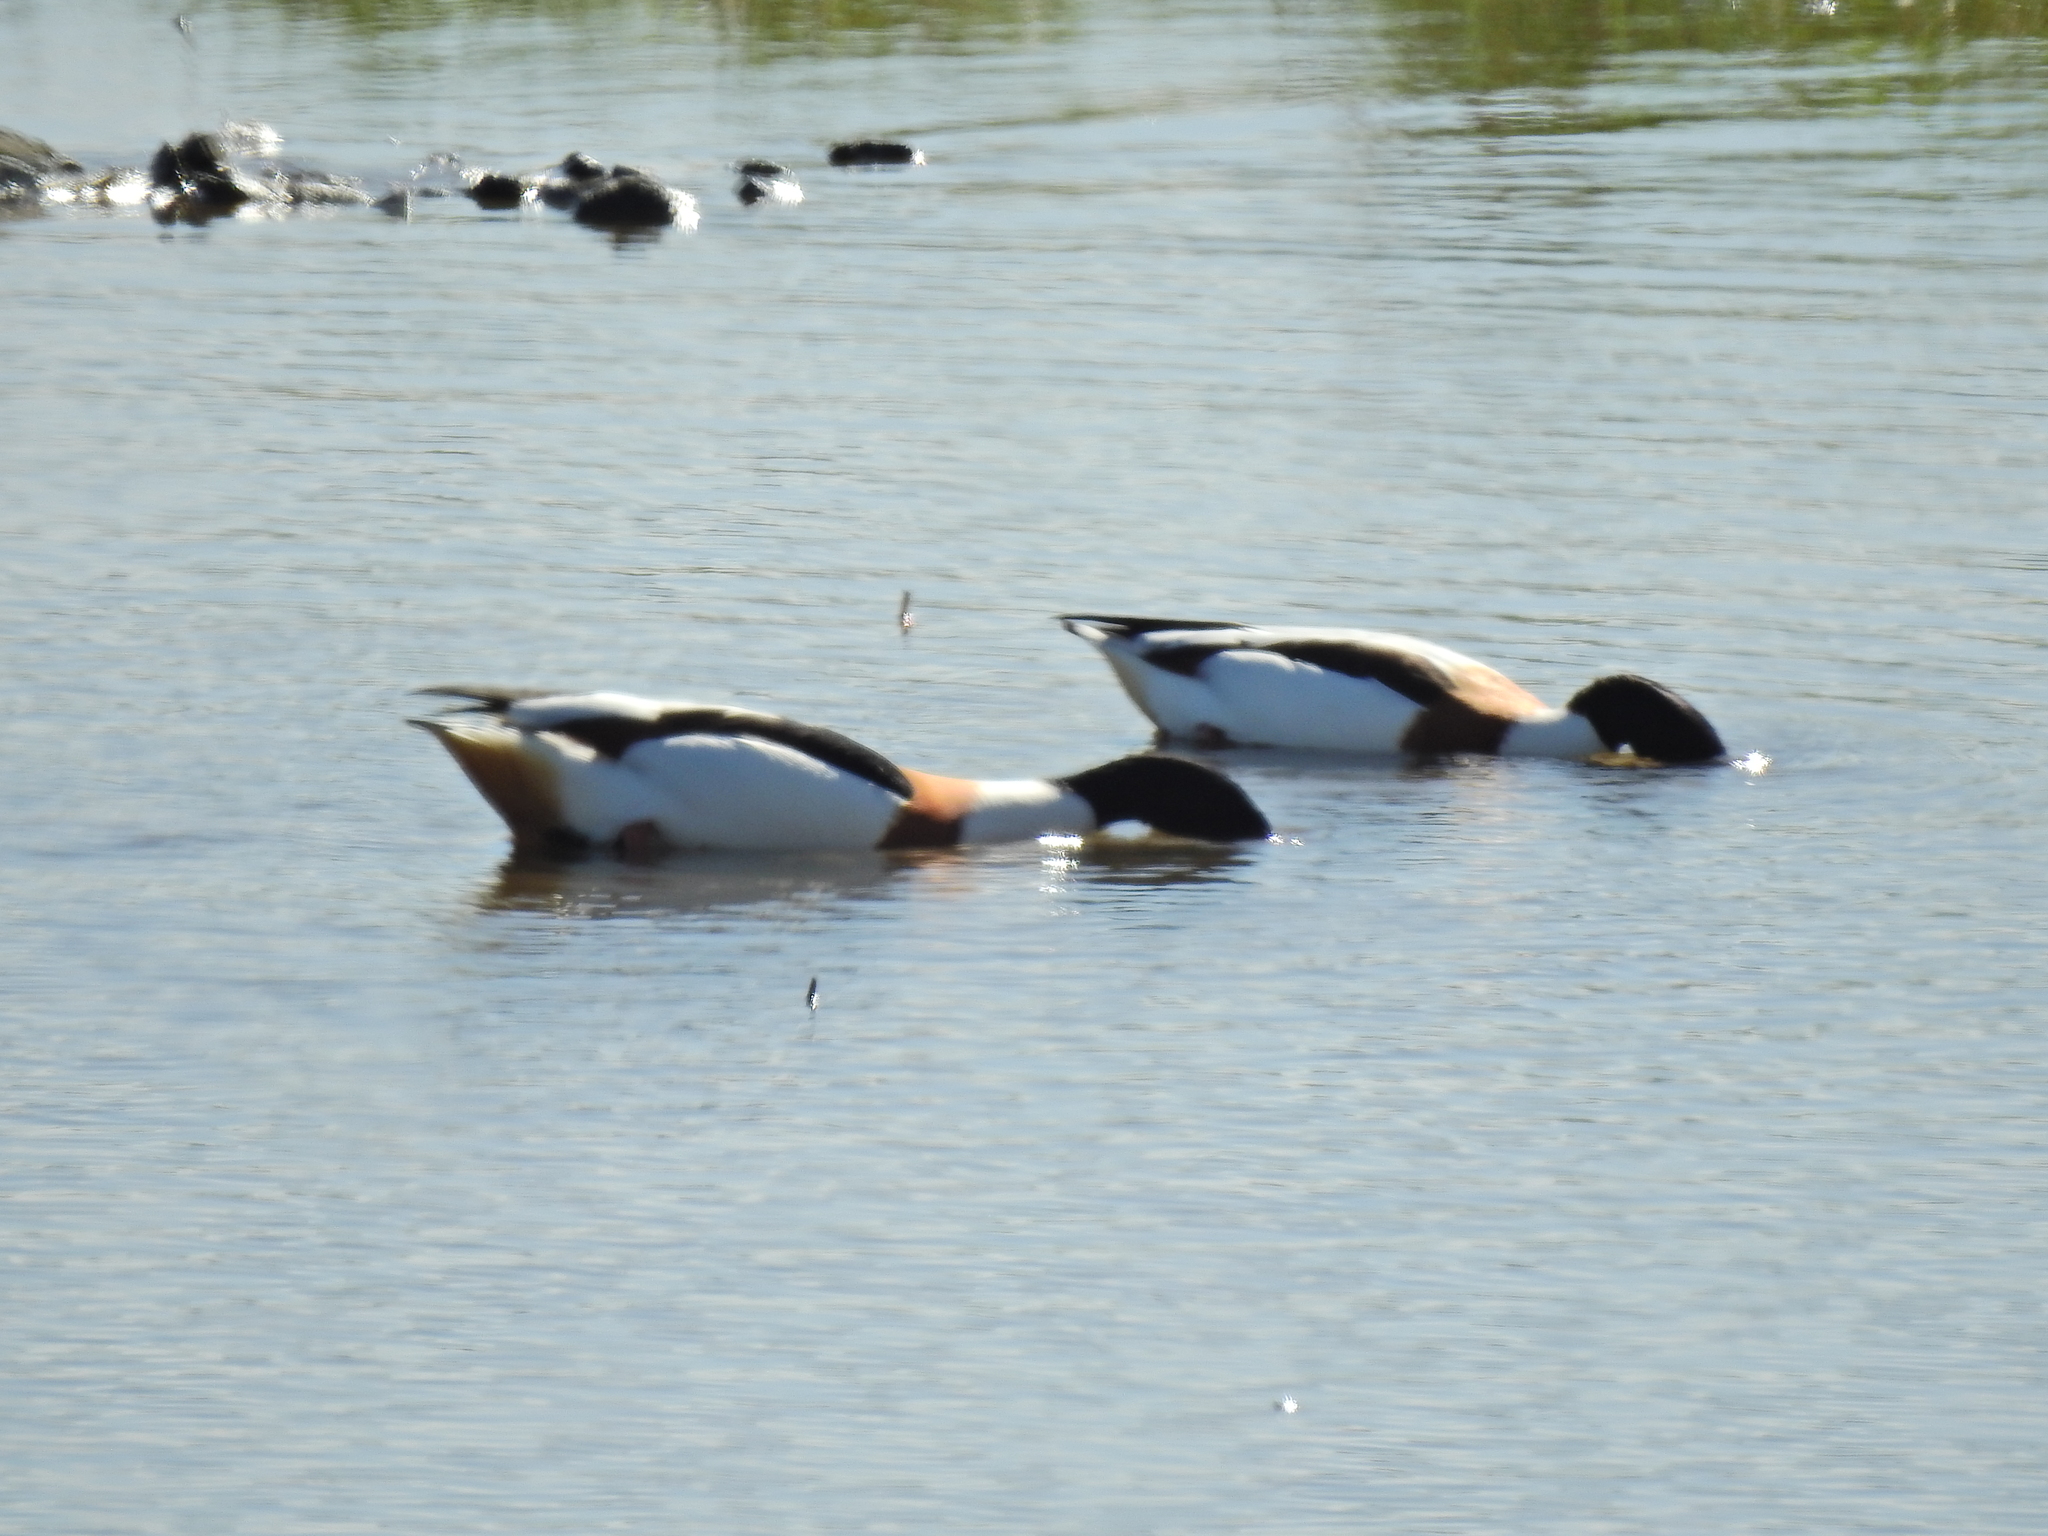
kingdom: Animalia
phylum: Chordata
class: Aves
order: Anseriformes
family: Anatidae
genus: Tadorna
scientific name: Tadorna tadorna
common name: Common shelduck
